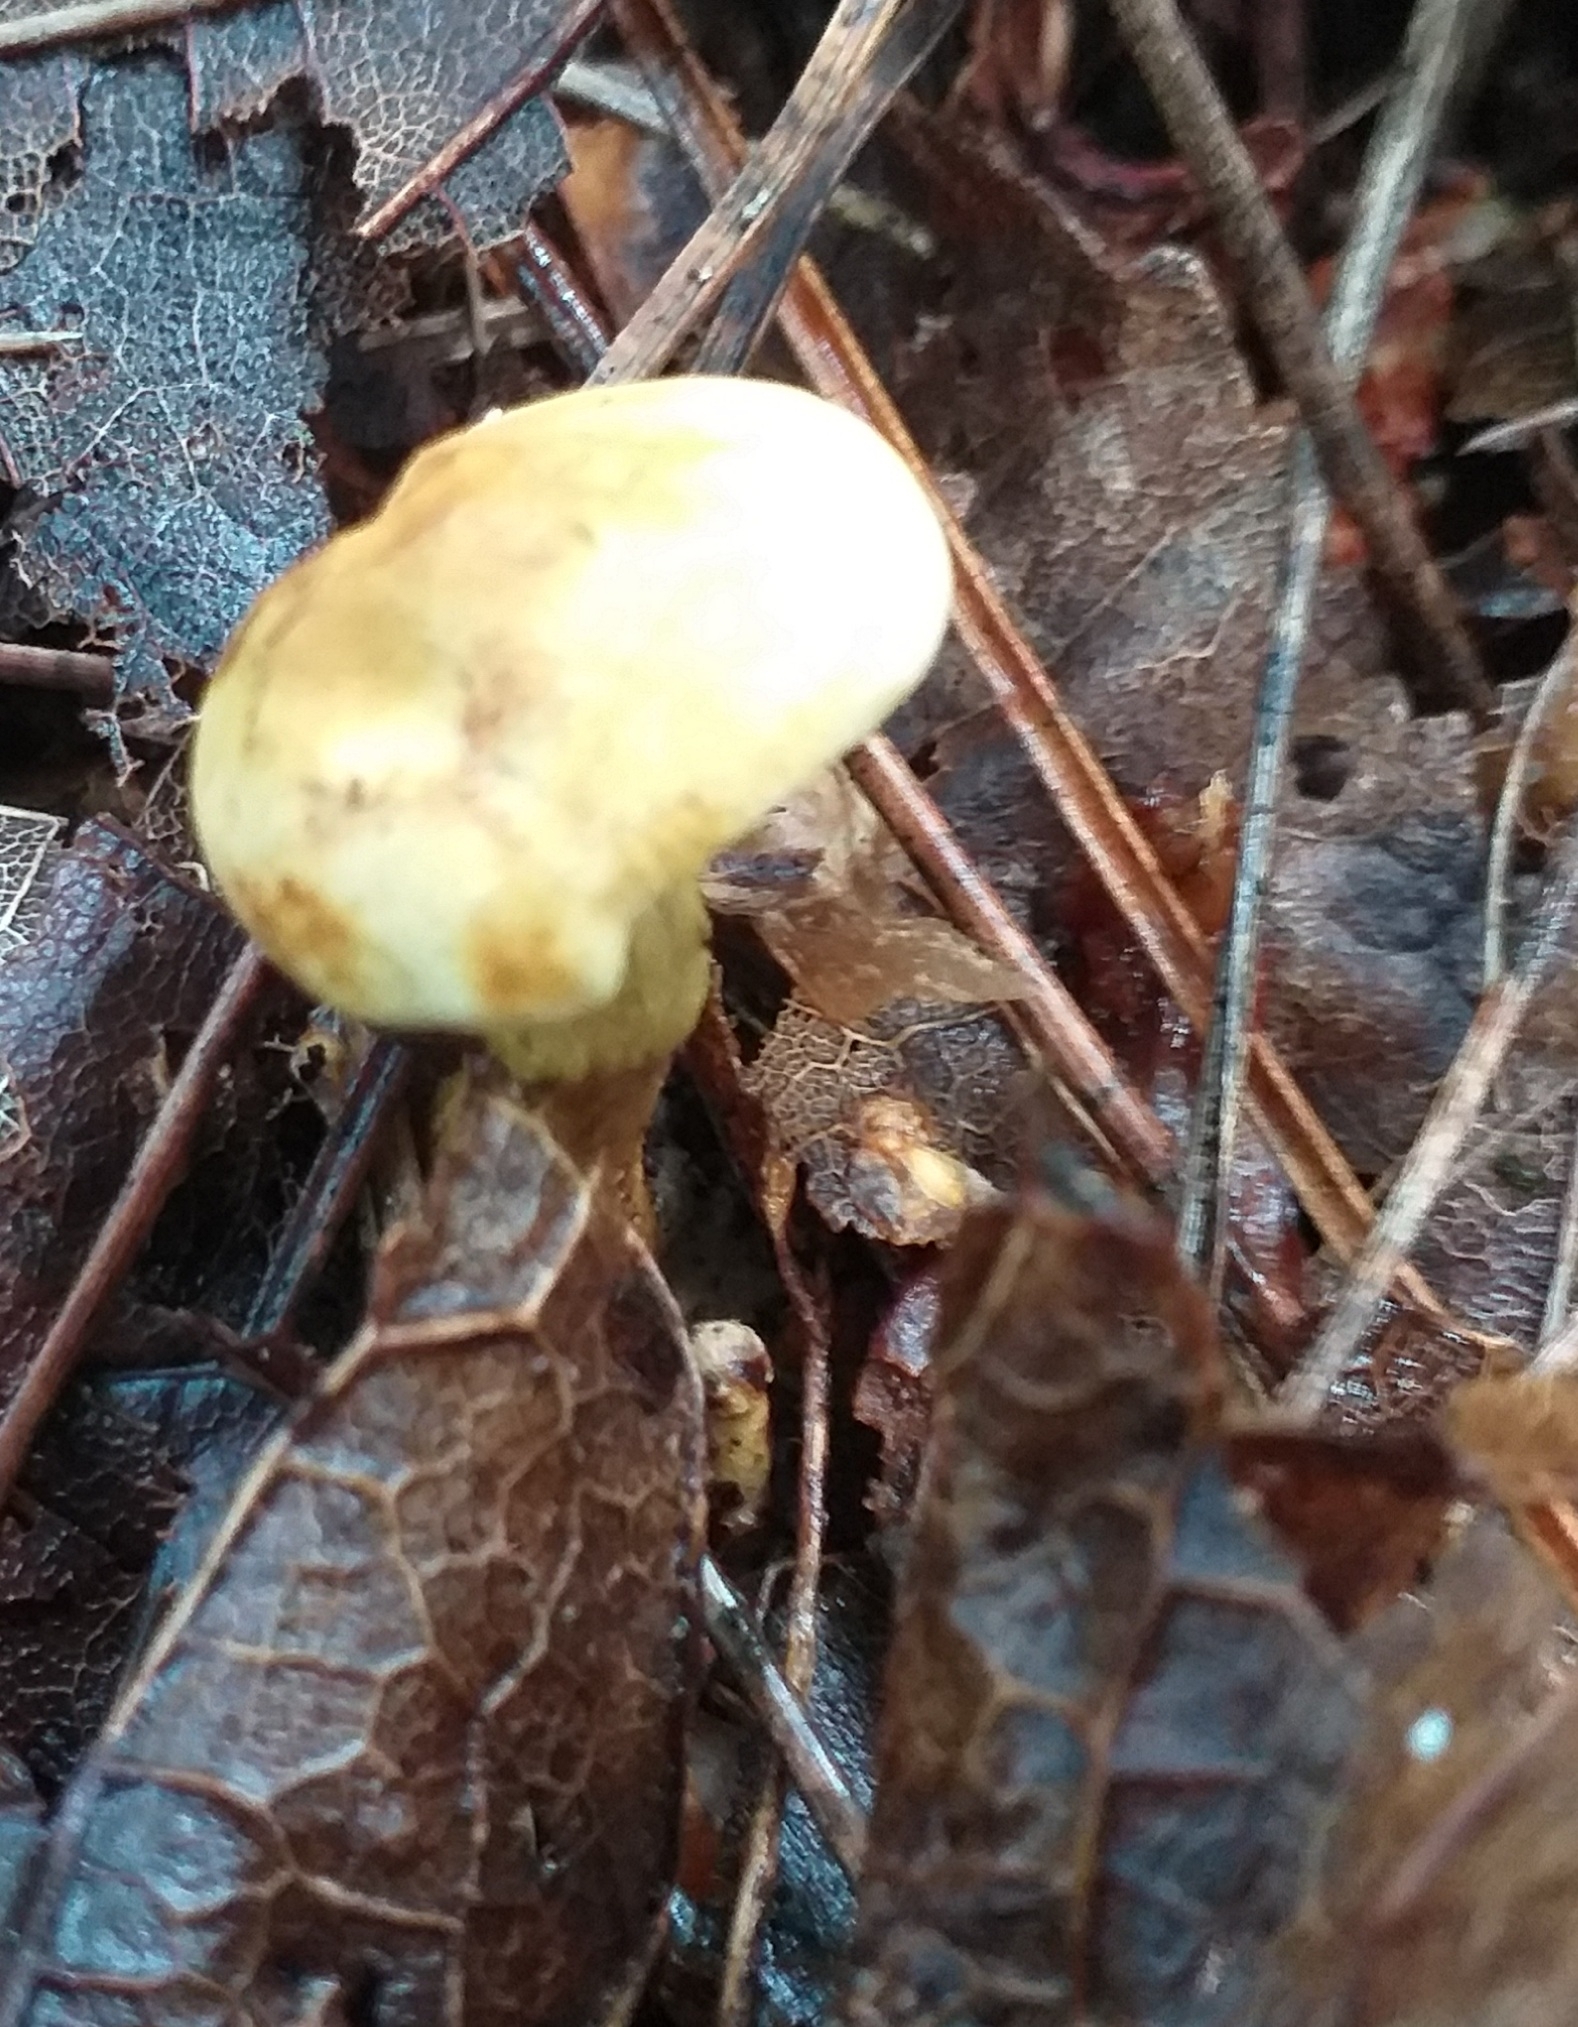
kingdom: Fungi
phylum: Basidiomycota
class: Agaricomycetes
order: Agaricales
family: Tricholomataceae
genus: Tricholoma
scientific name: Tricholoma sulphureum
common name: Stinky knight
